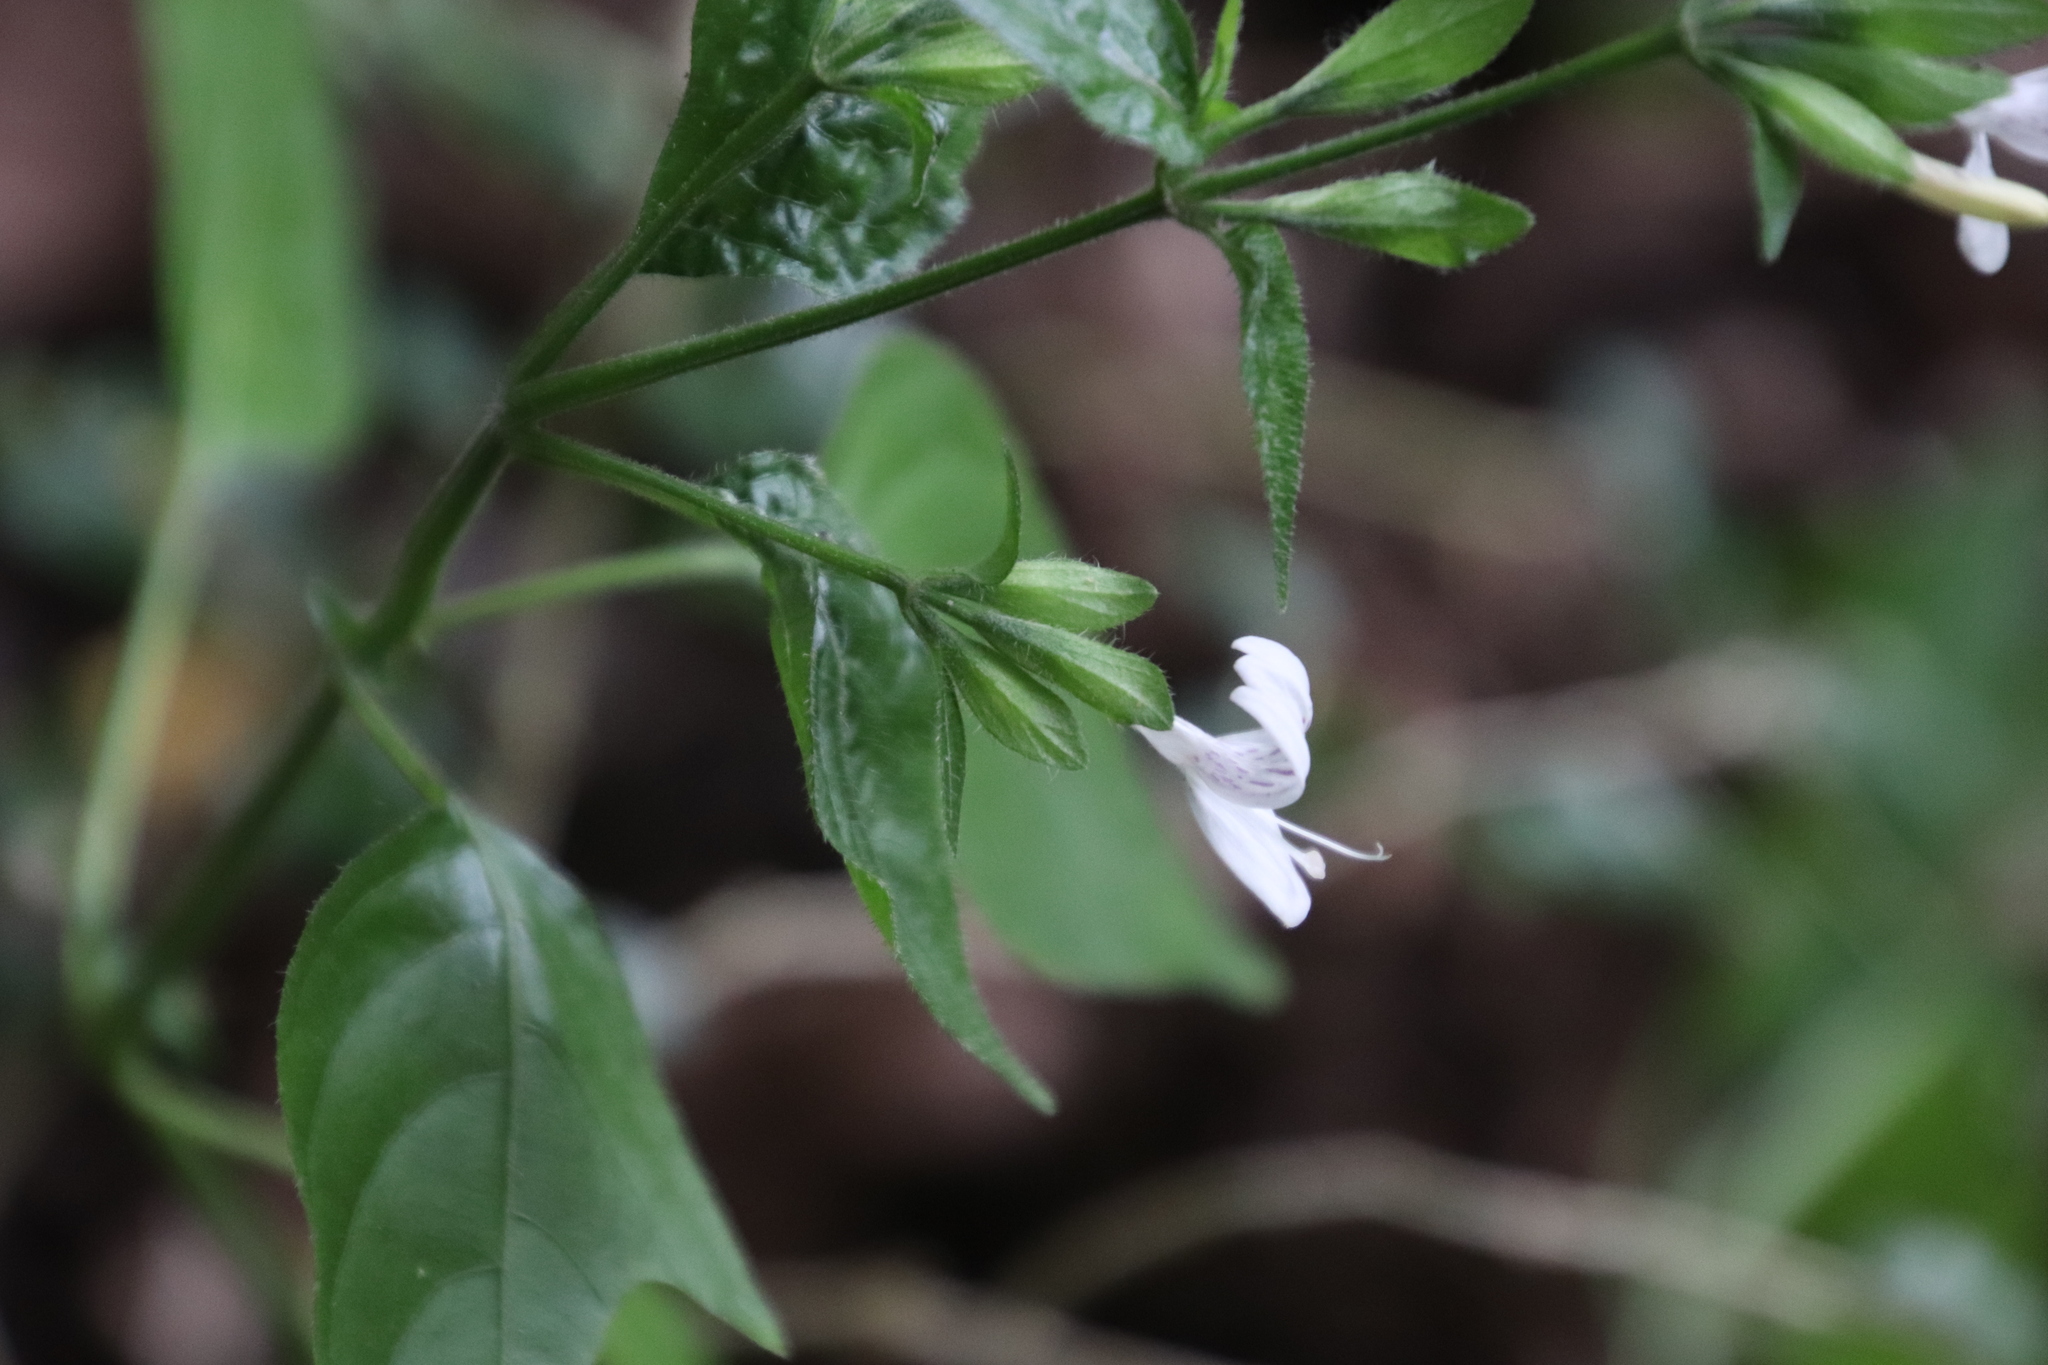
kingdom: Plantae
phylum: Tracheophyta
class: Magnoliopsida
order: Lamiales
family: Acanthaceae
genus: Hypoestes
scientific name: Hypoestes triflora
